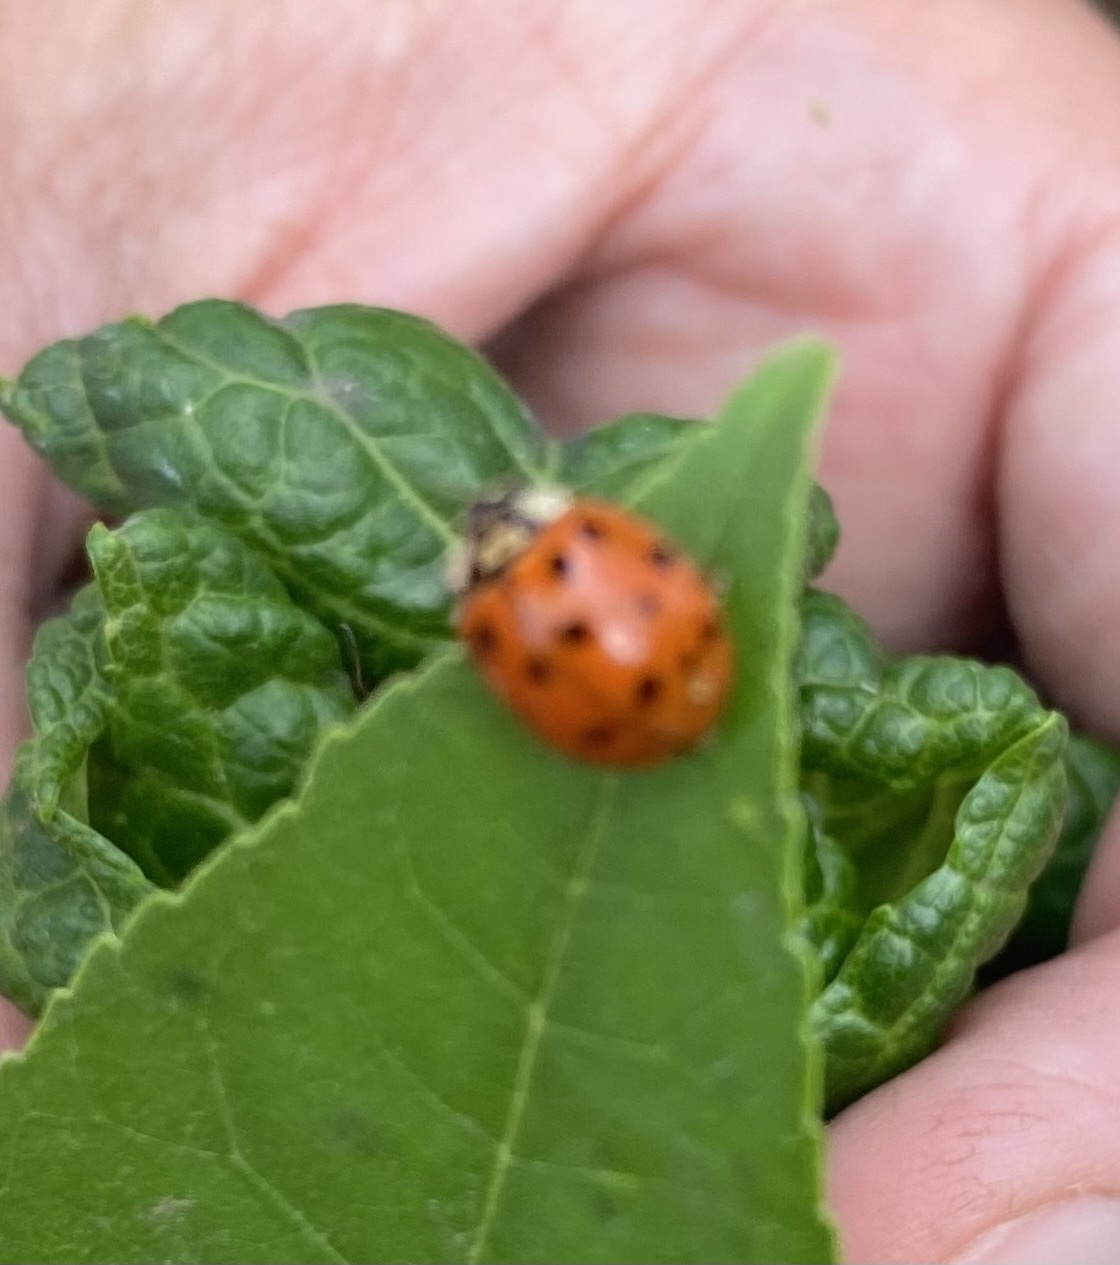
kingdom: Animalia
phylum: Arthropoda
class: Insecta
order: Coleoptera
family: Coccinellidae
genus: Harmonia
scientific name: Harmonia axyridis
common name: Harlequin ladybird
